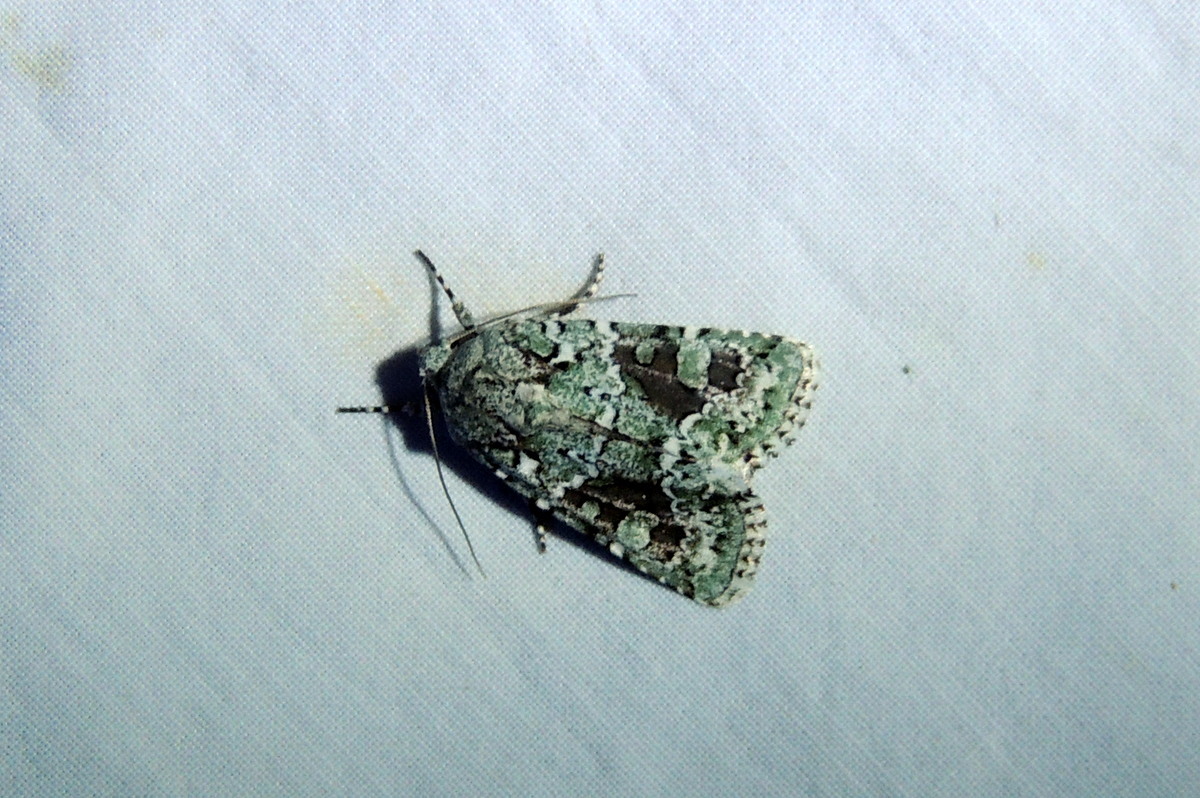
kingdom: Animalia
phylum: Arthropoda
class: Insecta
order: Lepidoptera
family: Noctuidae
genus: Lacinipolia
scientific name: Lacinipolia implicata
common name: Implicit arches
